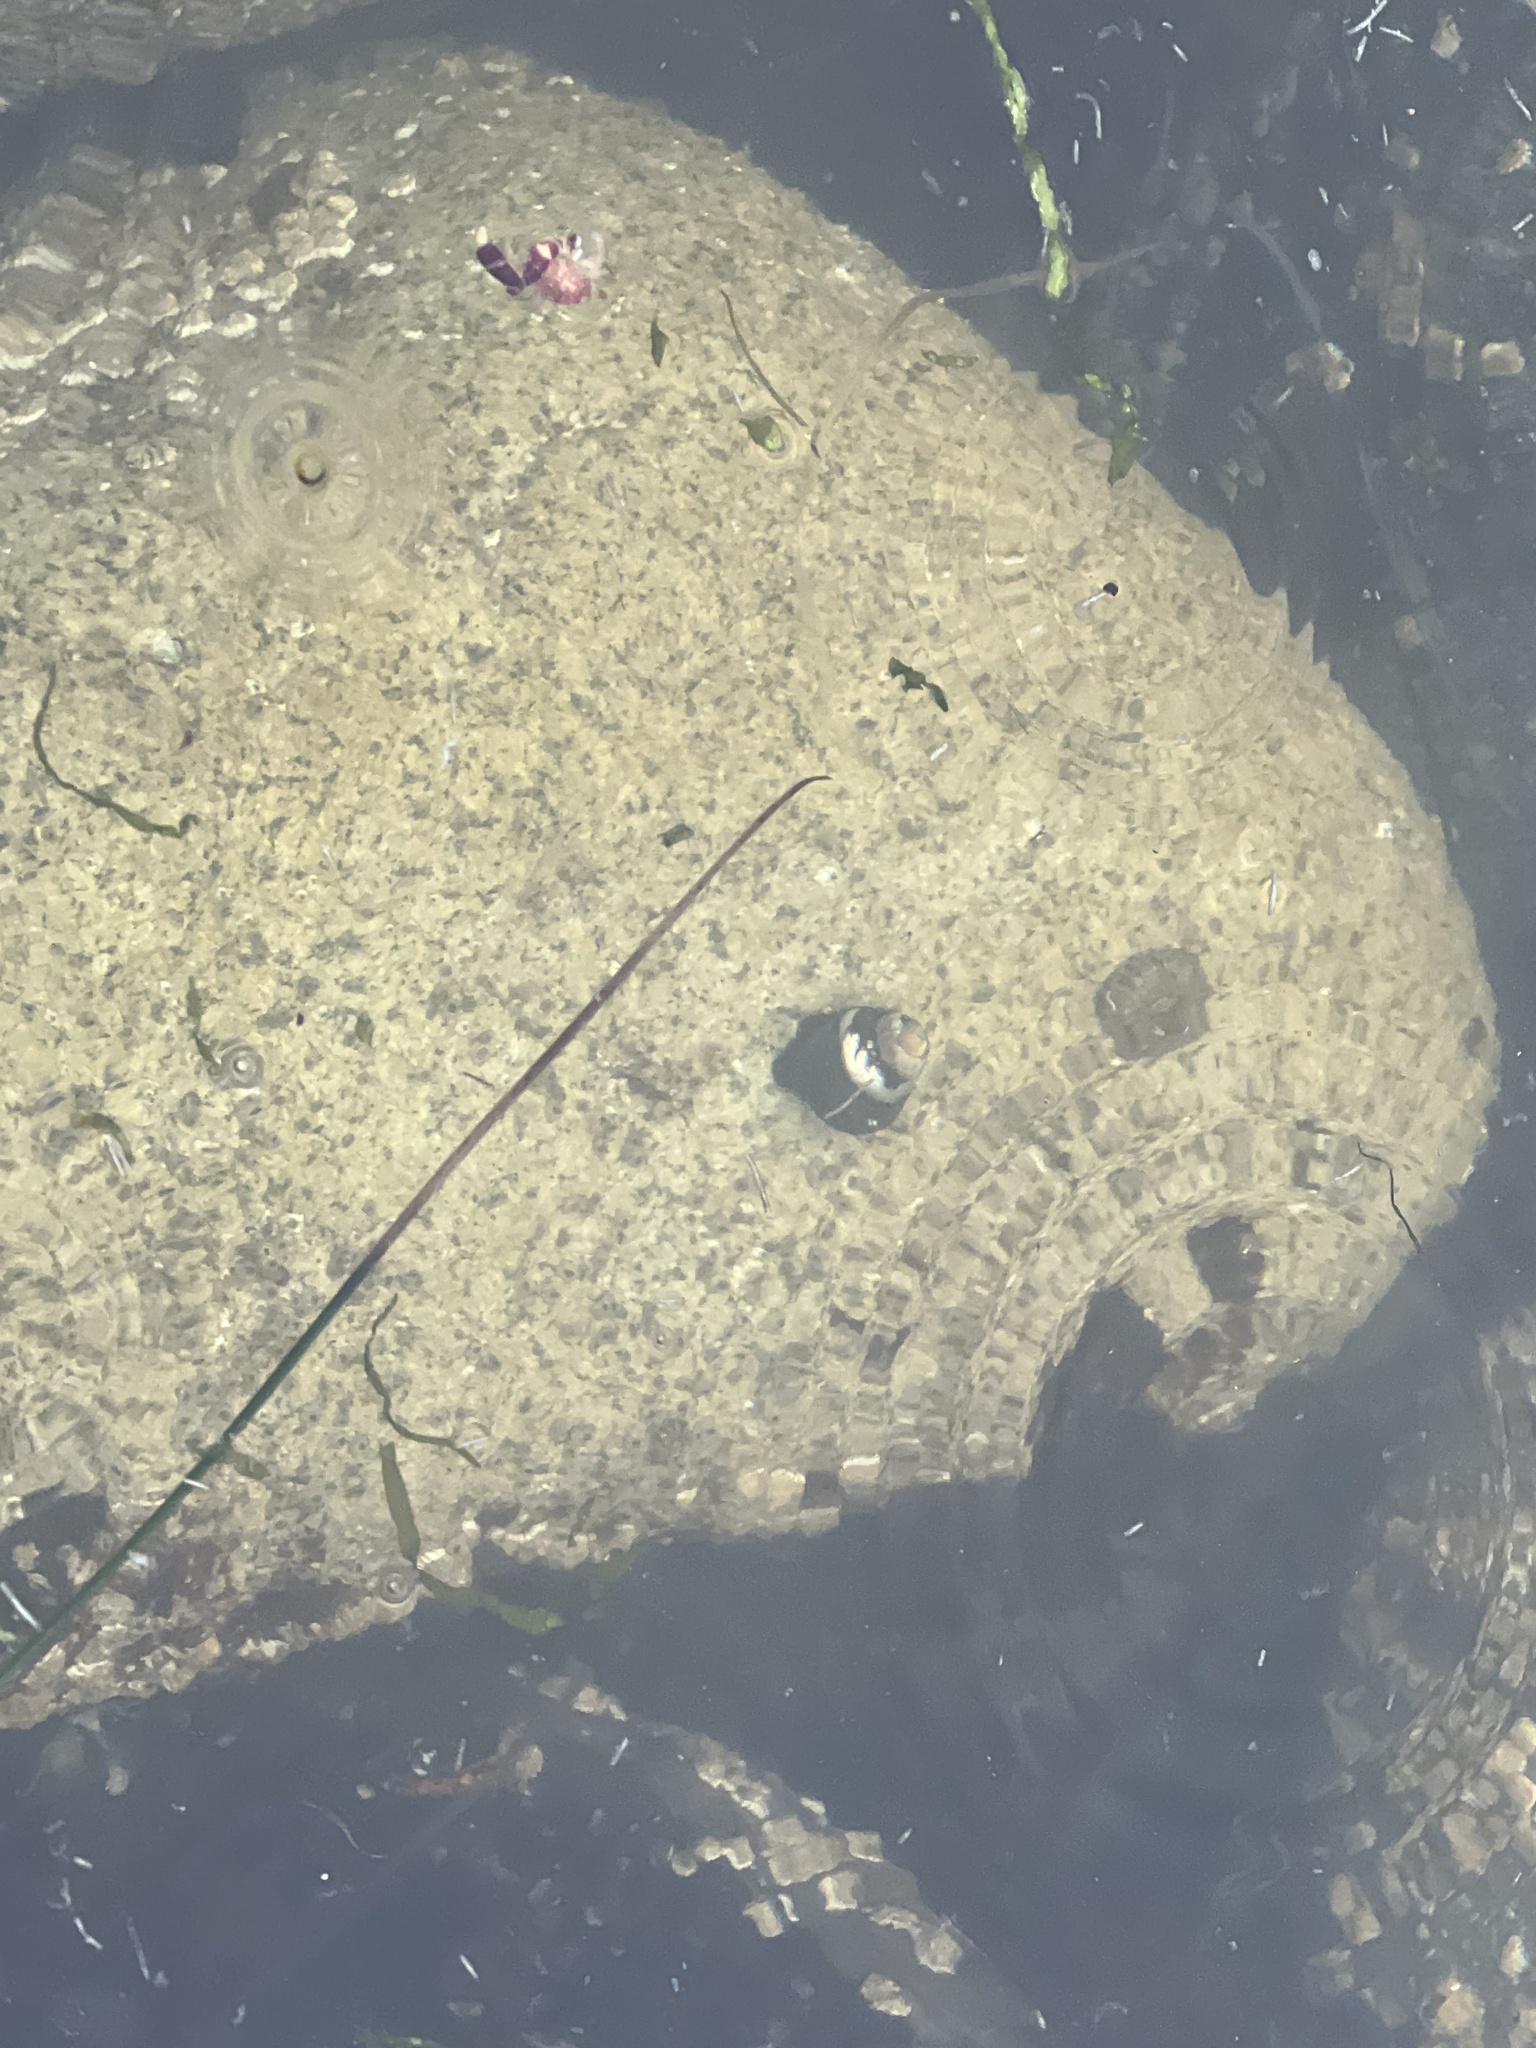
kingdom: Animalia
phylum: Mollusca
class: Gastropoda
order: Trochida
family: Tegulidae
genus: Tegula
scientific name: Tegula funebralis
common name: Black tegula
